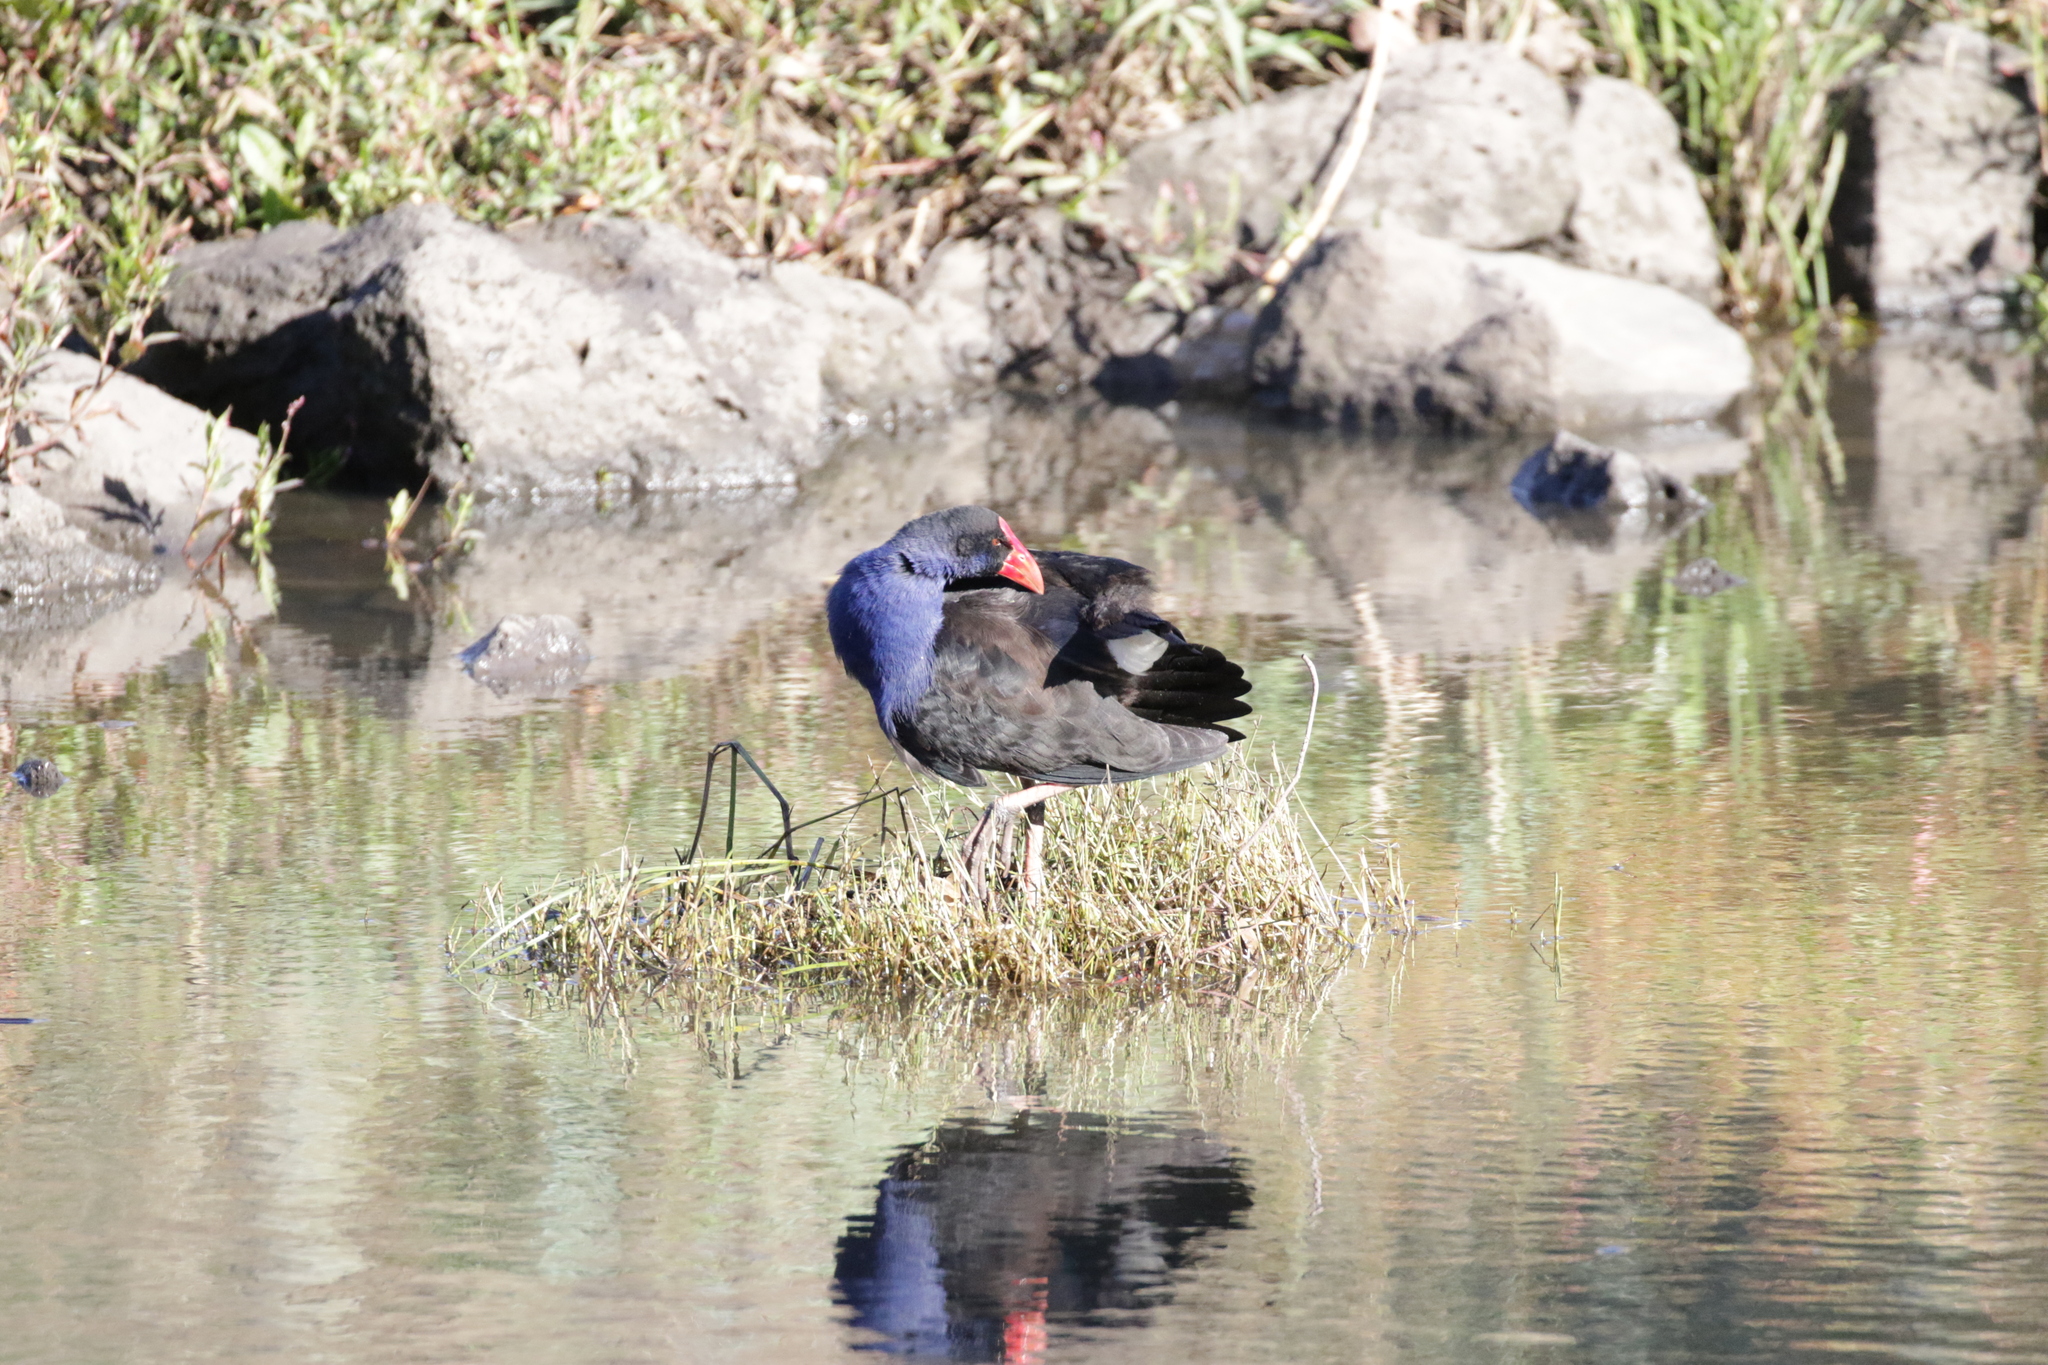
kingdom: Animalia
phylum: Chordata
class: Aves
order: Gruiformes
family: Rallidae
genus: Porphyrio
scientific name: Porphyrio melanotus
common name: Australasian swamphen
